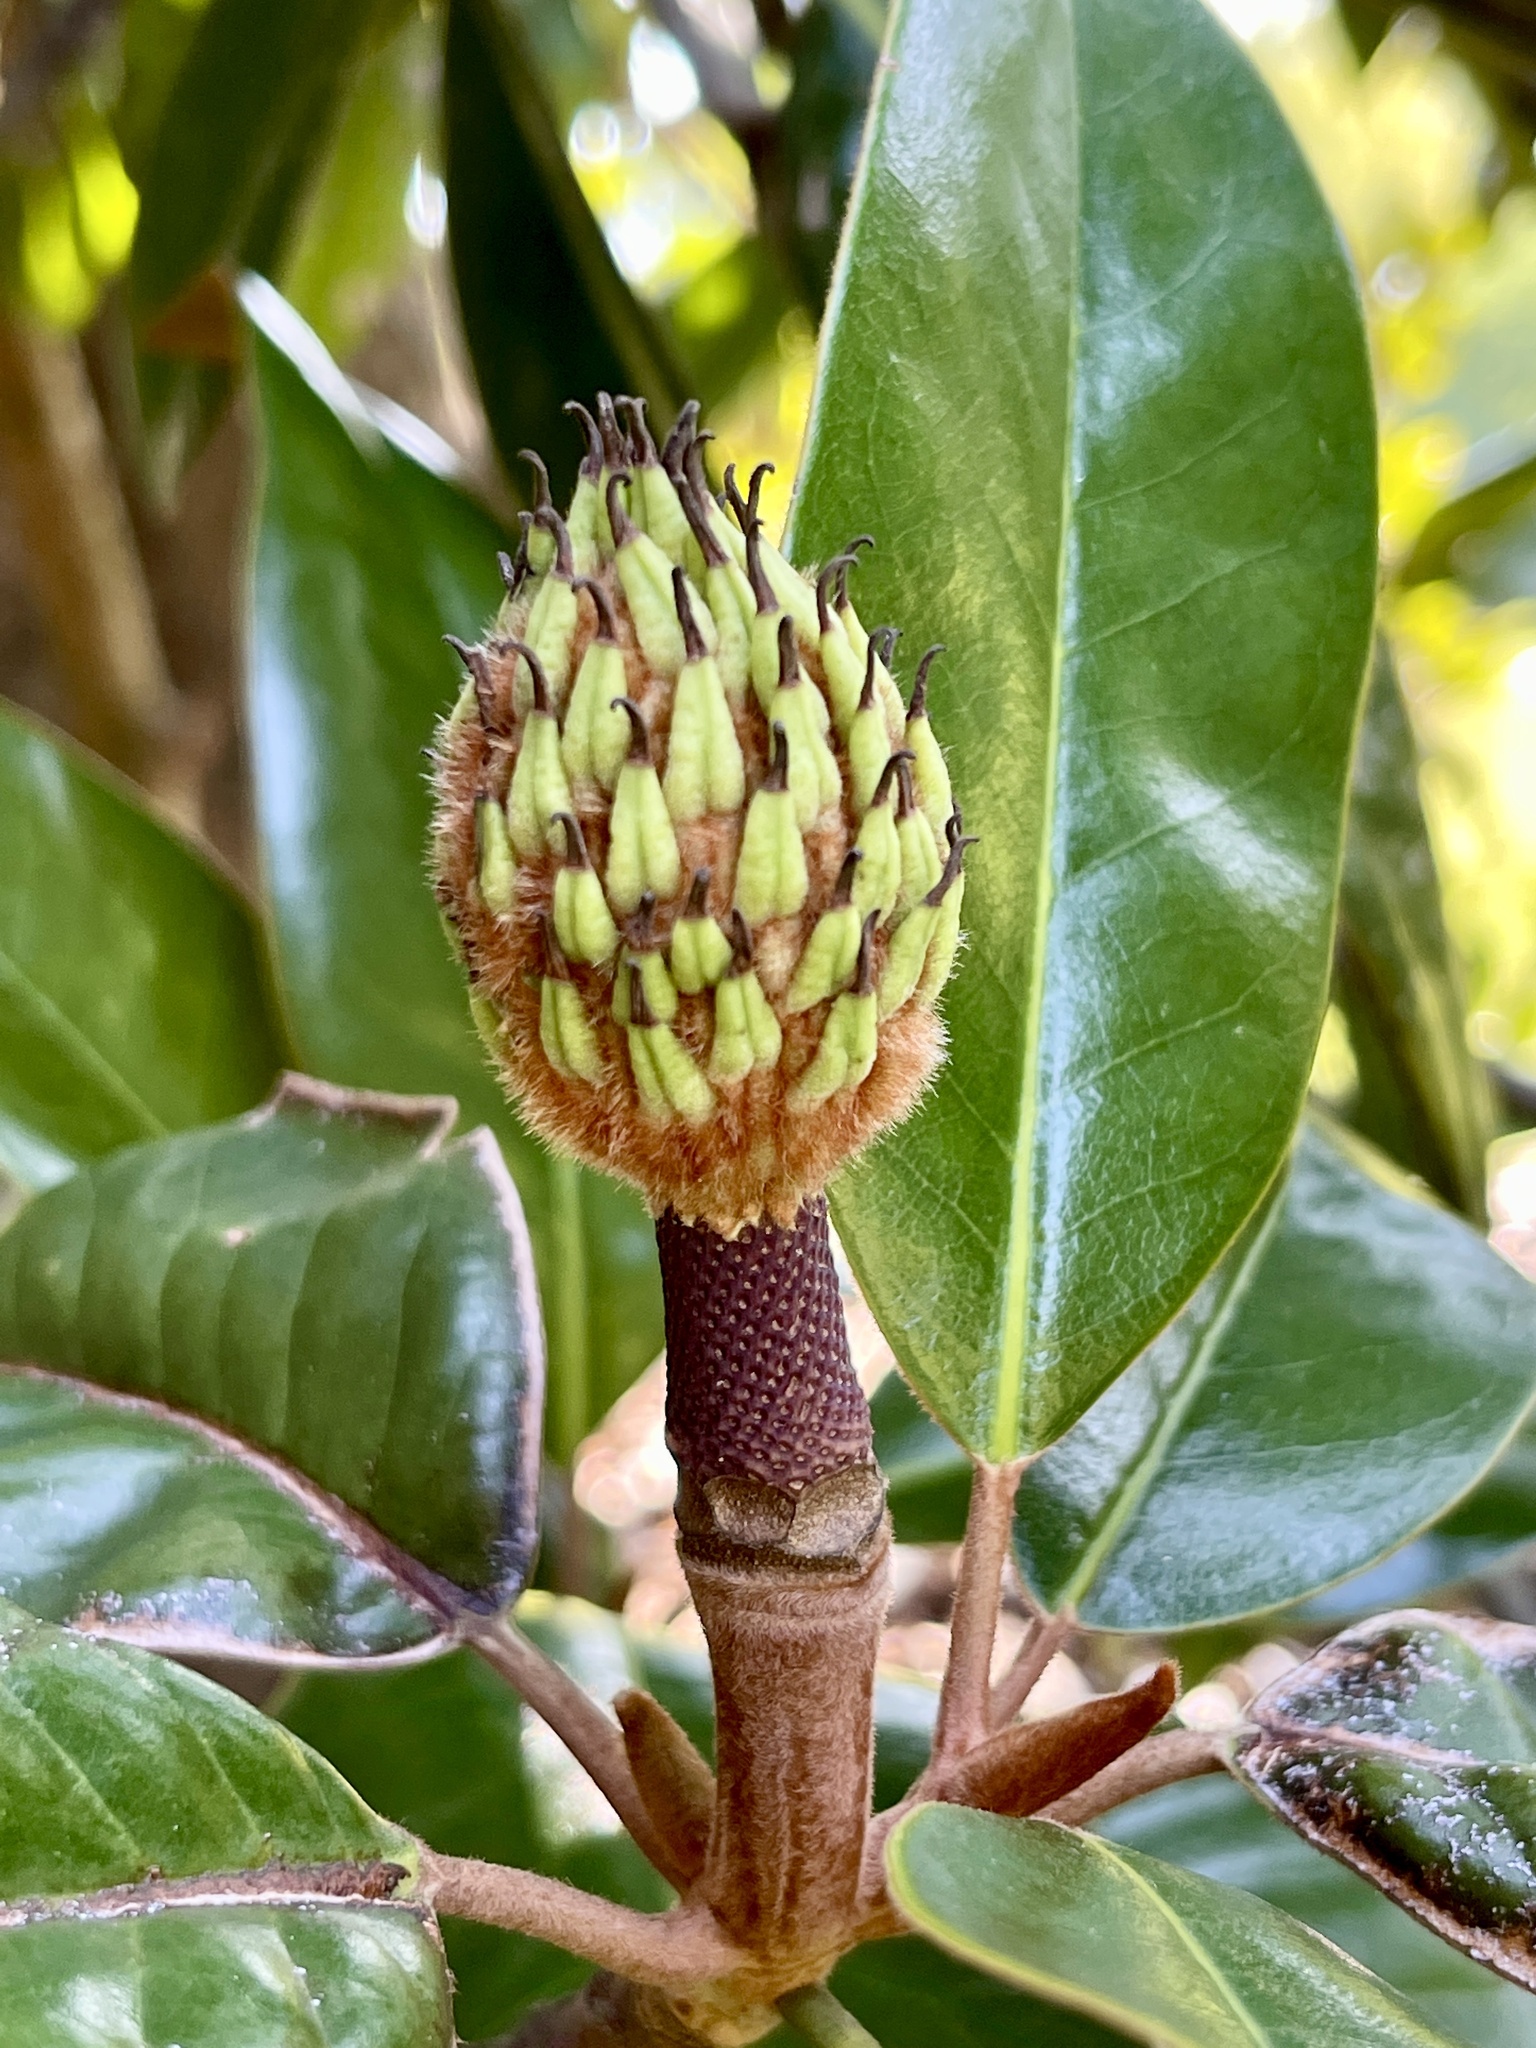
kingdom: Plantae
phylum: Tracheophyta
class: Magnoliopsida
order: Magnoliales
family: Magnoliaceae
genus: Magnolia
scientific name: Magnolia grandiflora
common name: Southern magnolia
